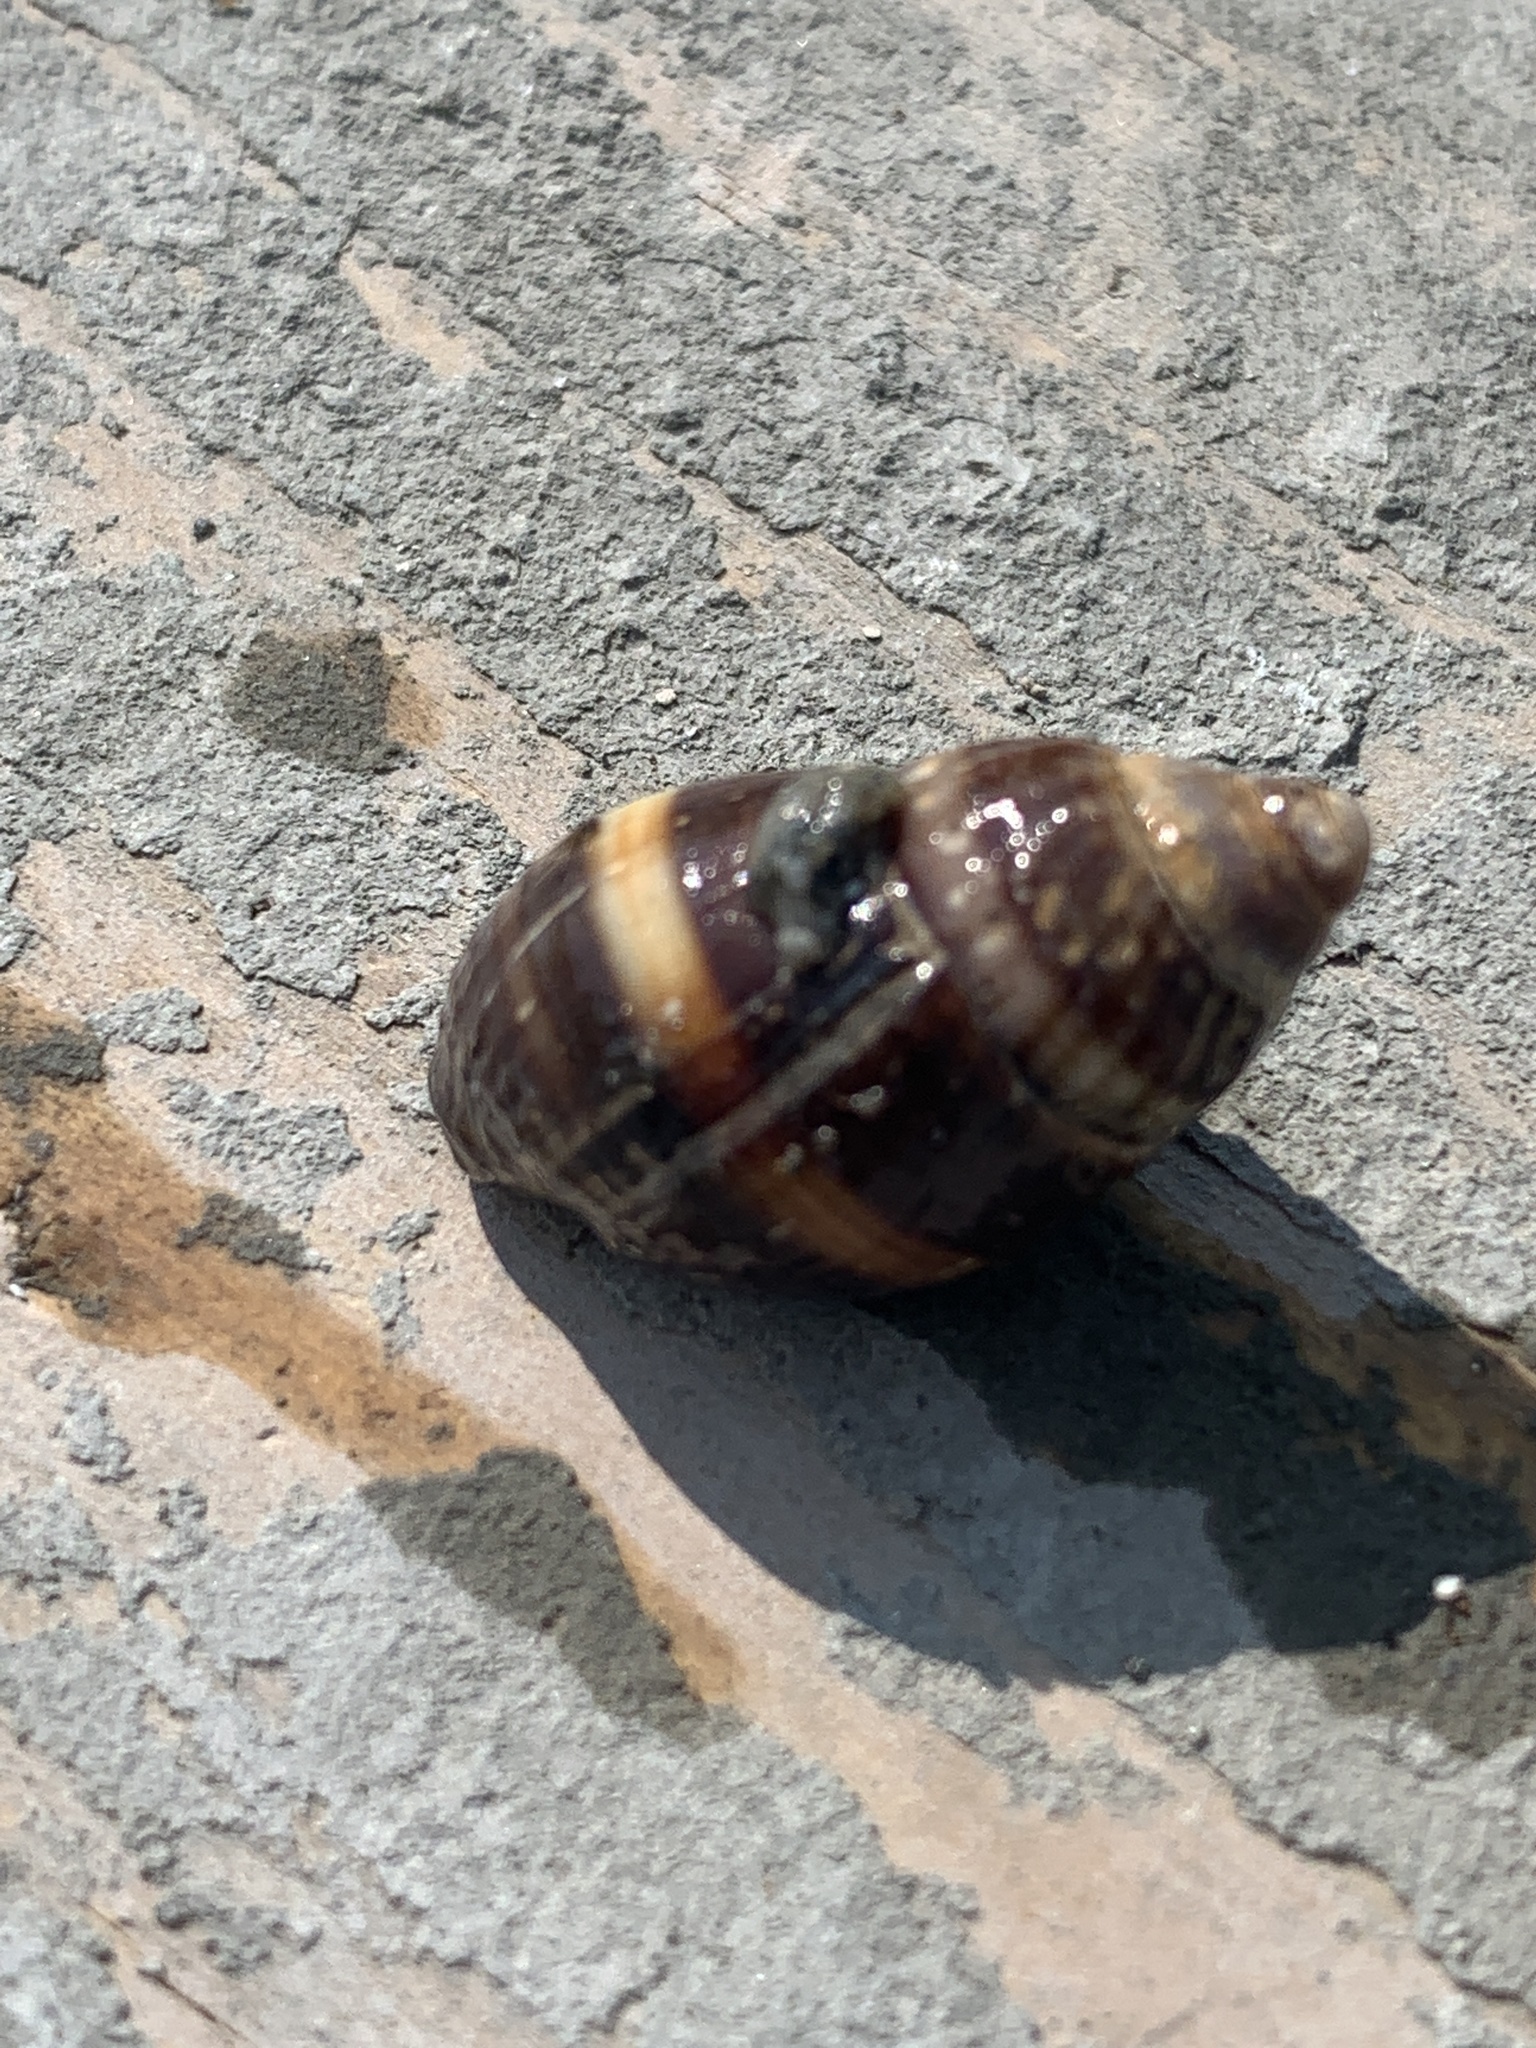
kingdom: Animalia
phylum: Mollusca
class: Gastropoda
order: Neogastropoda
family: Nassariidae
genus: Ilyanassa
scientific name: Ilyanassa obsoleta
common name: Eastern mudsnail
